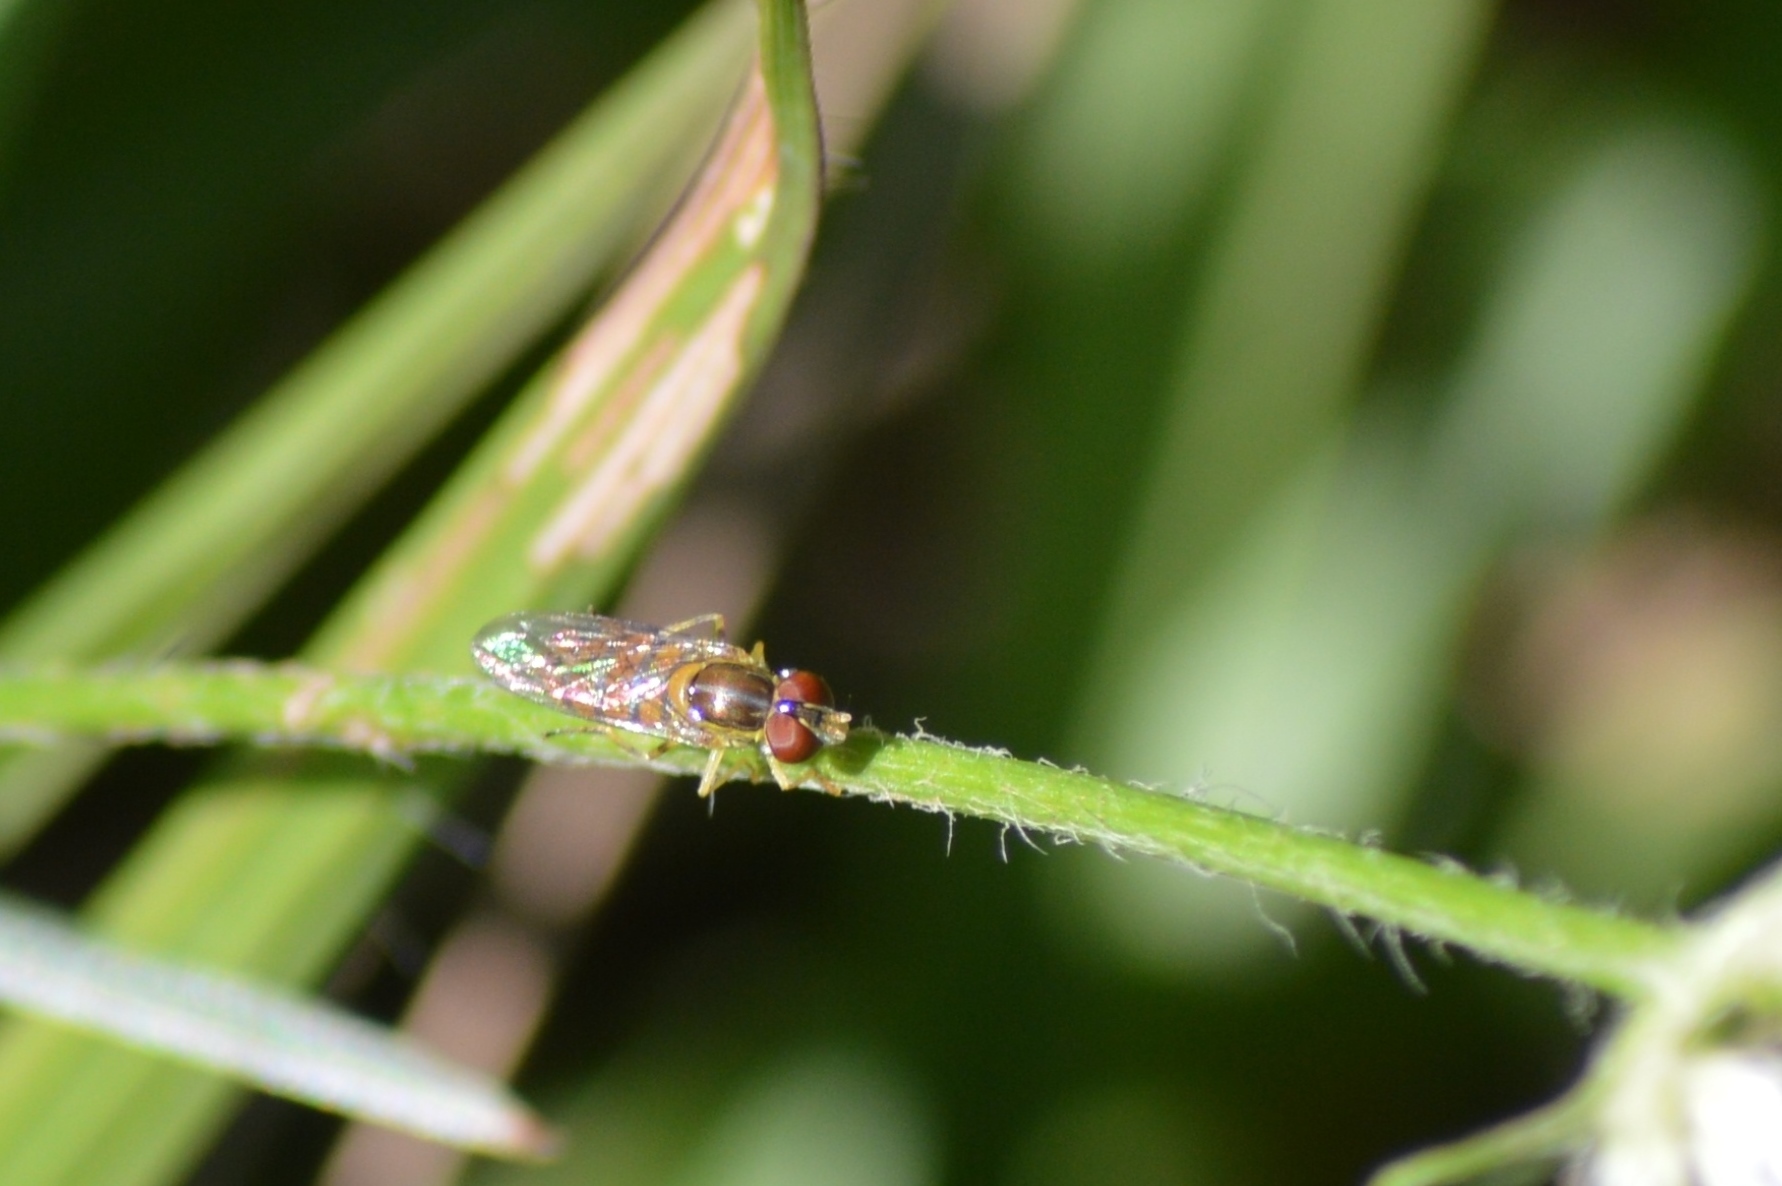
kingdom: Animalia
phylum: Arthropoda
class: Insecta
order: Diptera
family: Syrphidae
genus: Toxomerus
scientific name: Toxomerus
